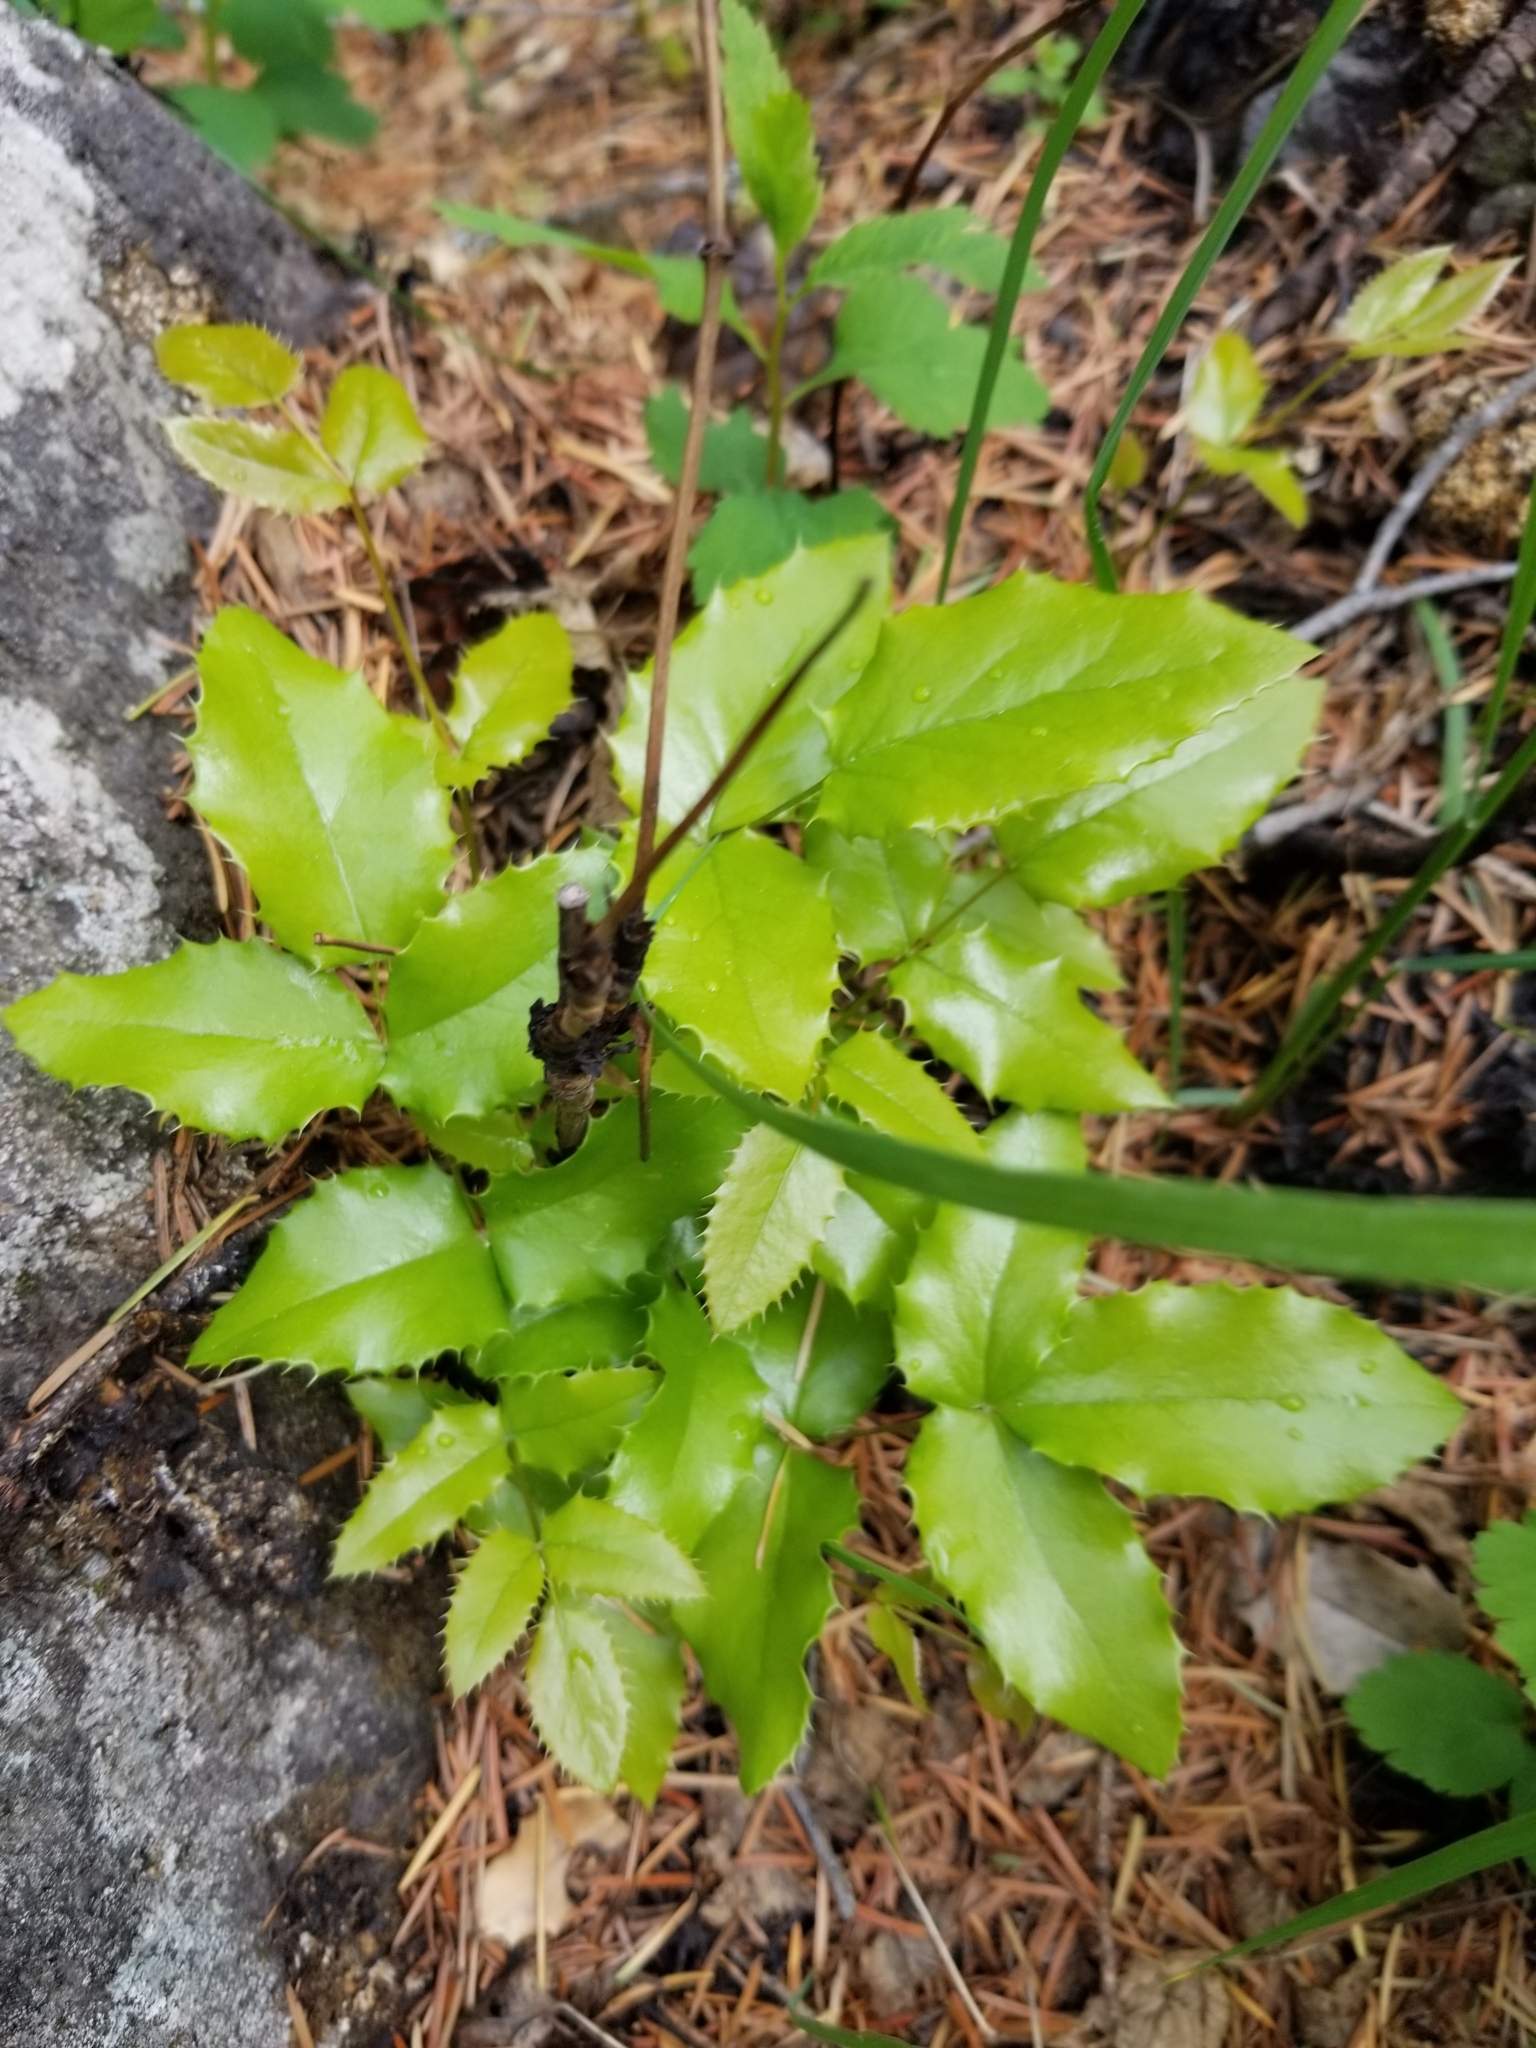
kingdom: Plantae
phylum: Tracheophyta
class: Magnoliopsida
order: Ranunculales
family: Berberidaceae
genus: Mahonia
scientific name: Mahonia aquifolium
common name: Oregon-grape
